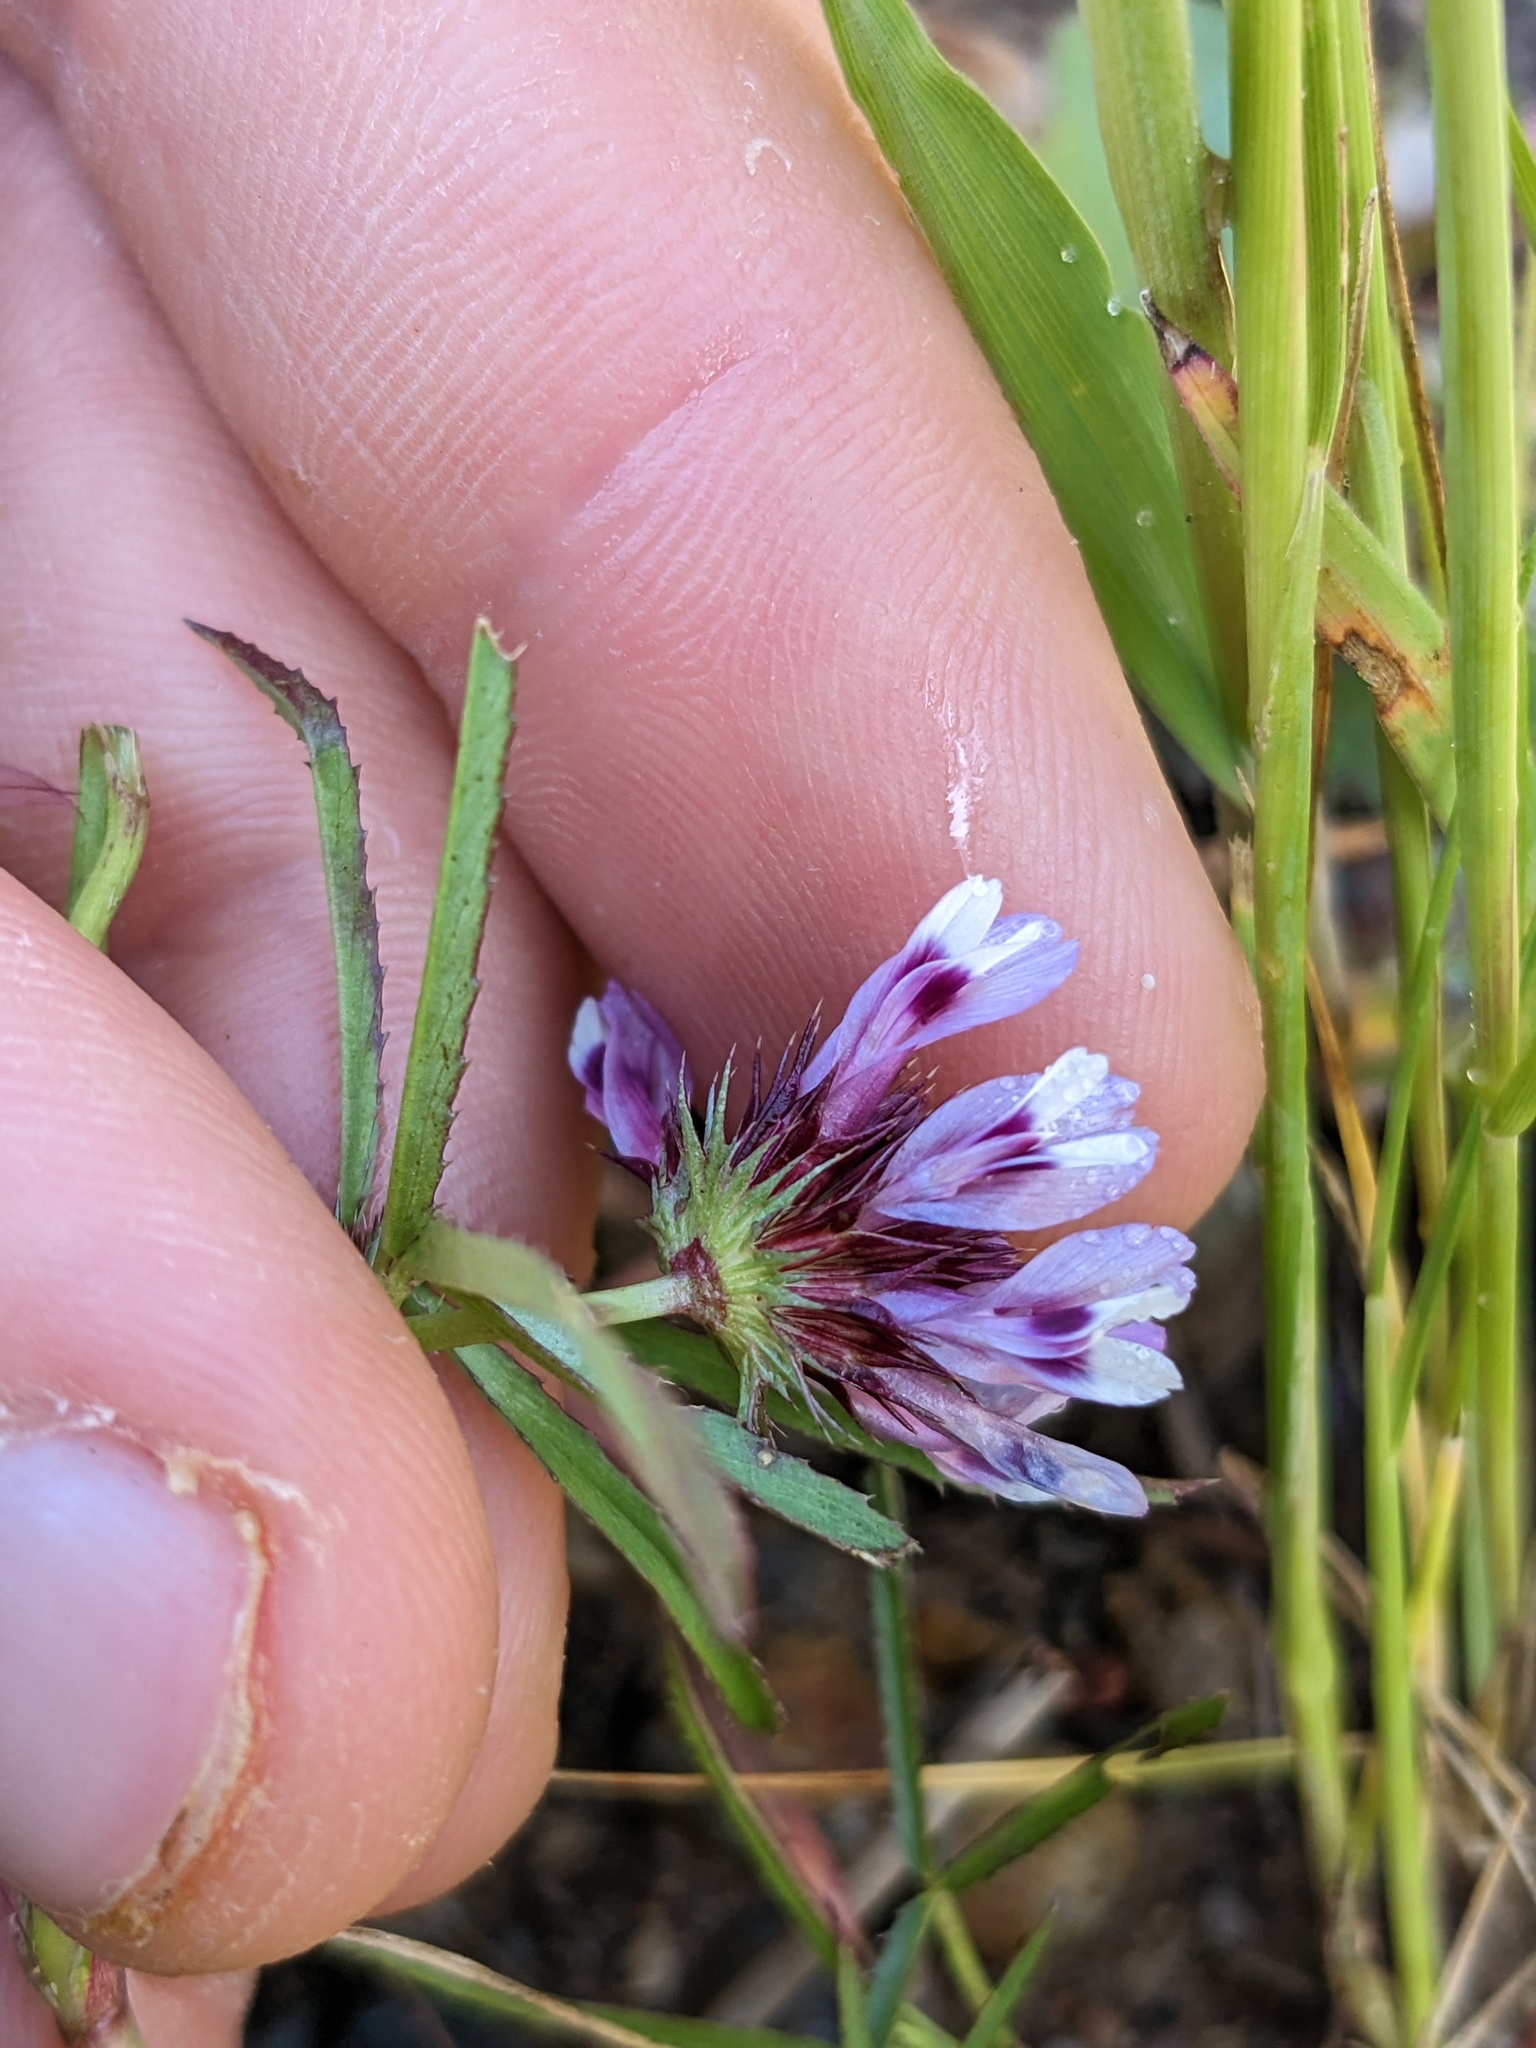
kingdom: Plantae
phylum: Tracheophyta
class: Magnoliopsida
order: Fabales
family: Fabaceae
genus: Trifolium
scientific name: Trifolium willdenovii
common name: Tomcat clover
